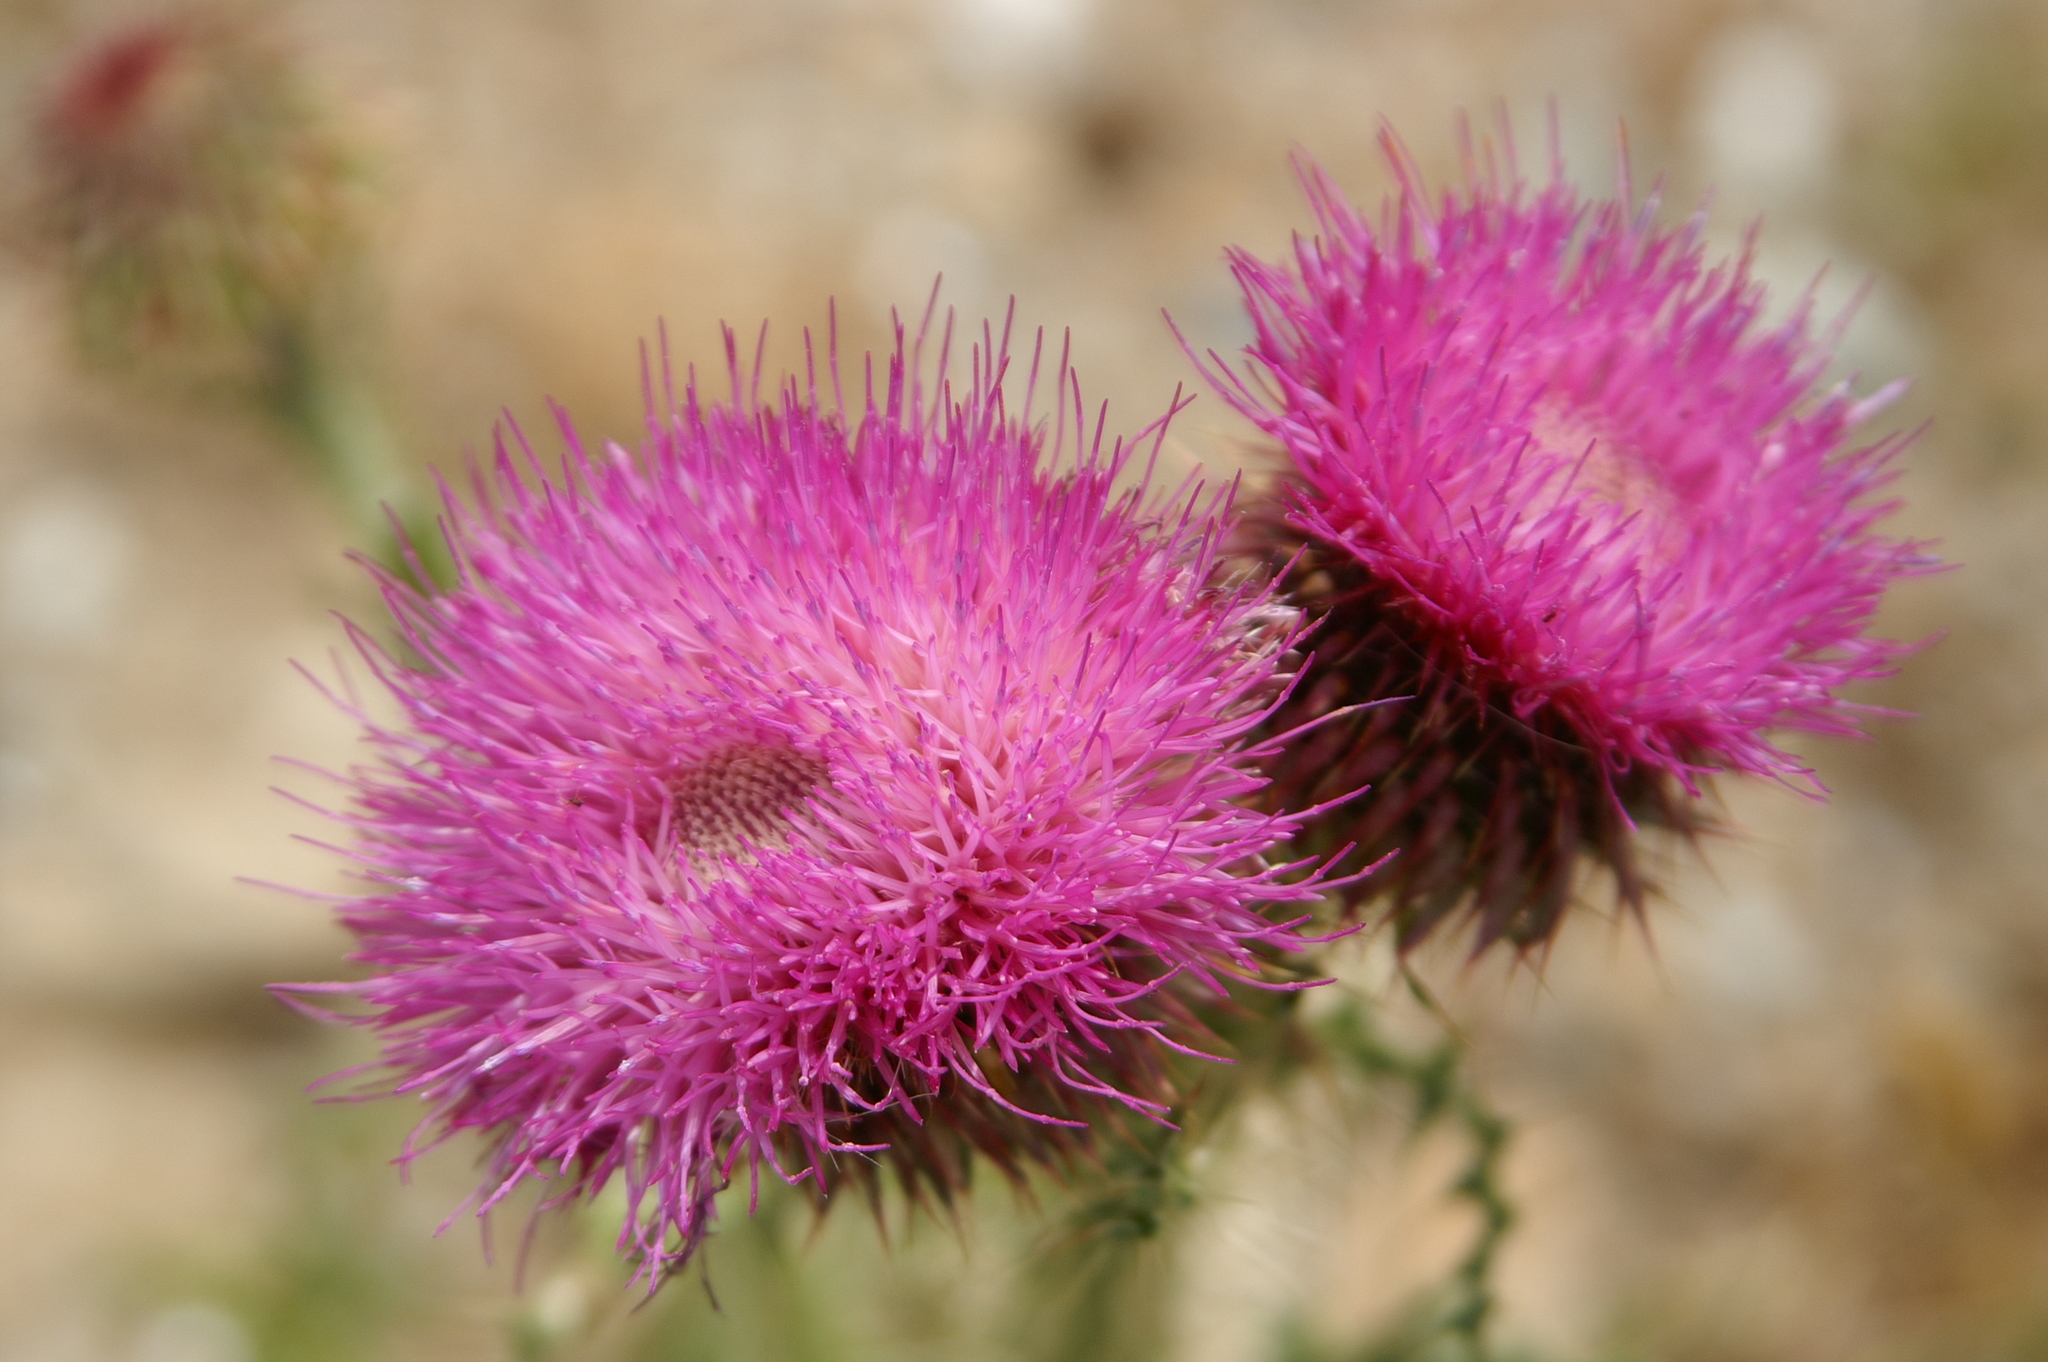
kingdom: Plantae
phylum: Tracheophyta
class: Magnoliopsida
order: Asterales
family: Asteraceae
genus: Carduus
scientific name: Carduus platypus
